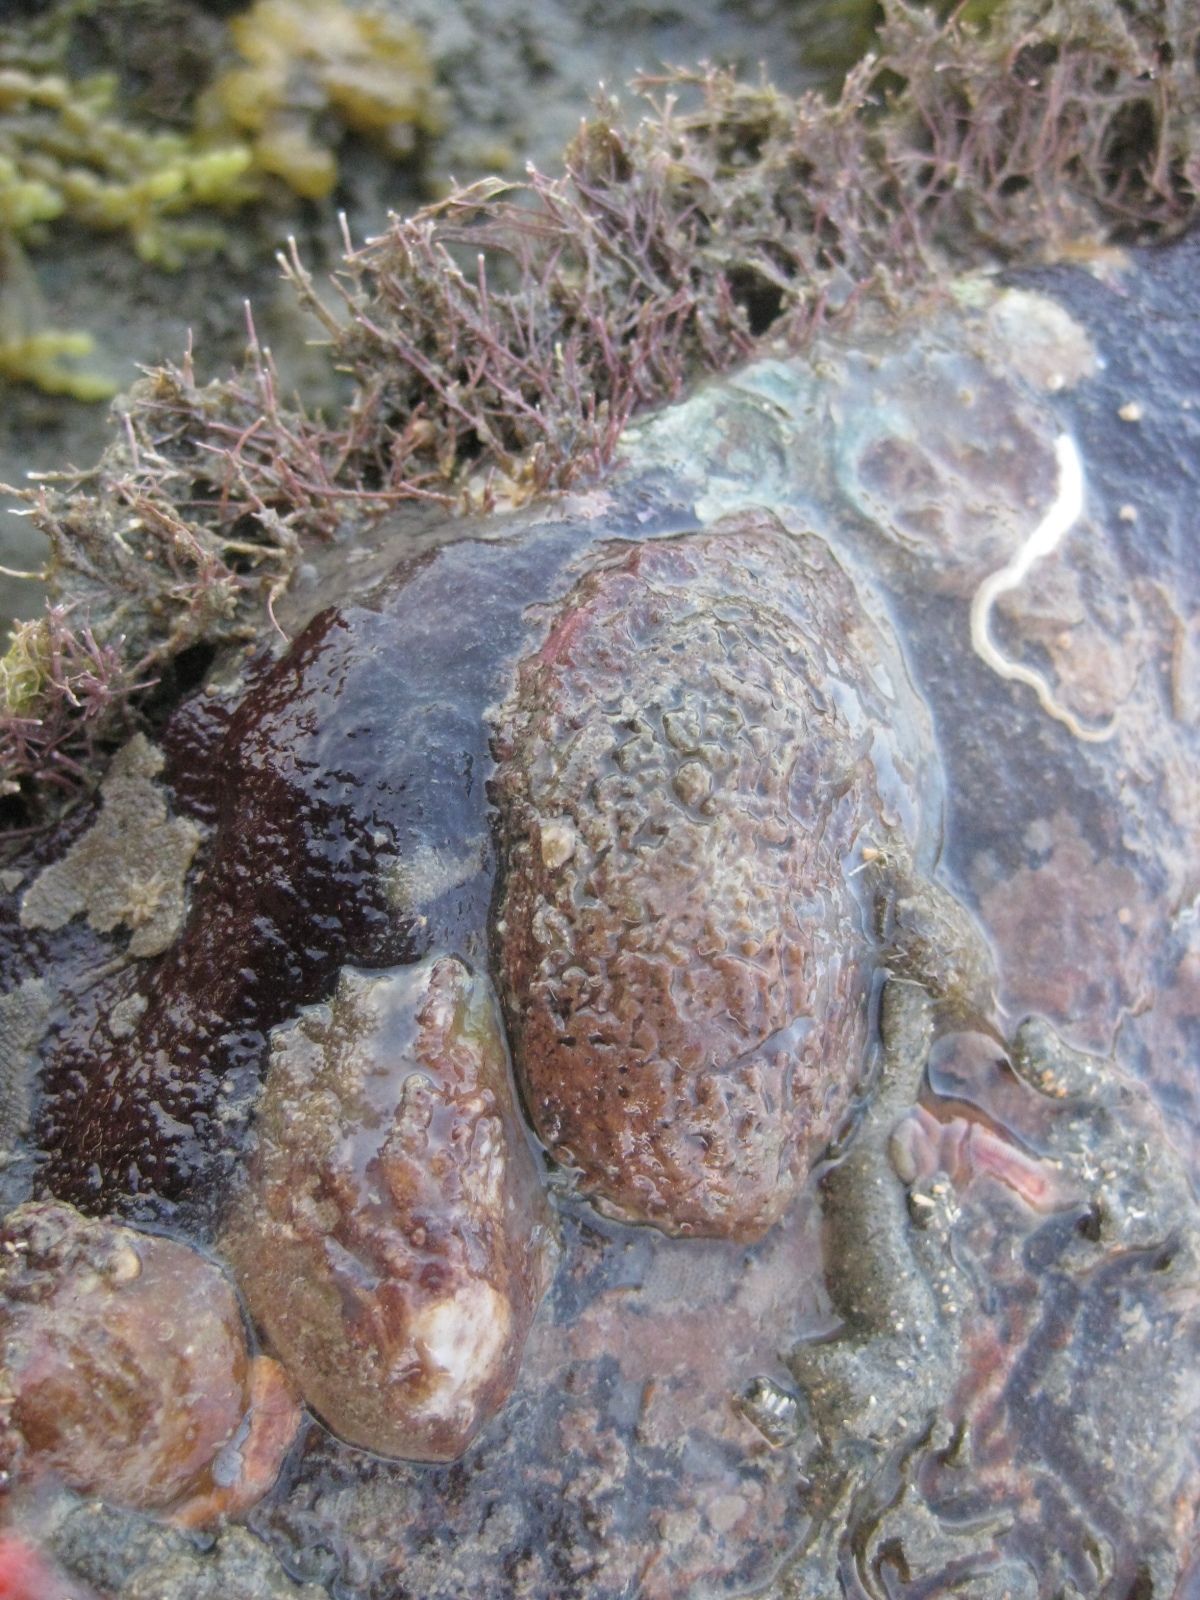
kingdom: Animalia
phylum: Mollusca
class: Gastropoda
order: Littorinimorpha
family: Calyptraeidae
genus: Maoricrypta
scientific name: Maoricrypta costata
